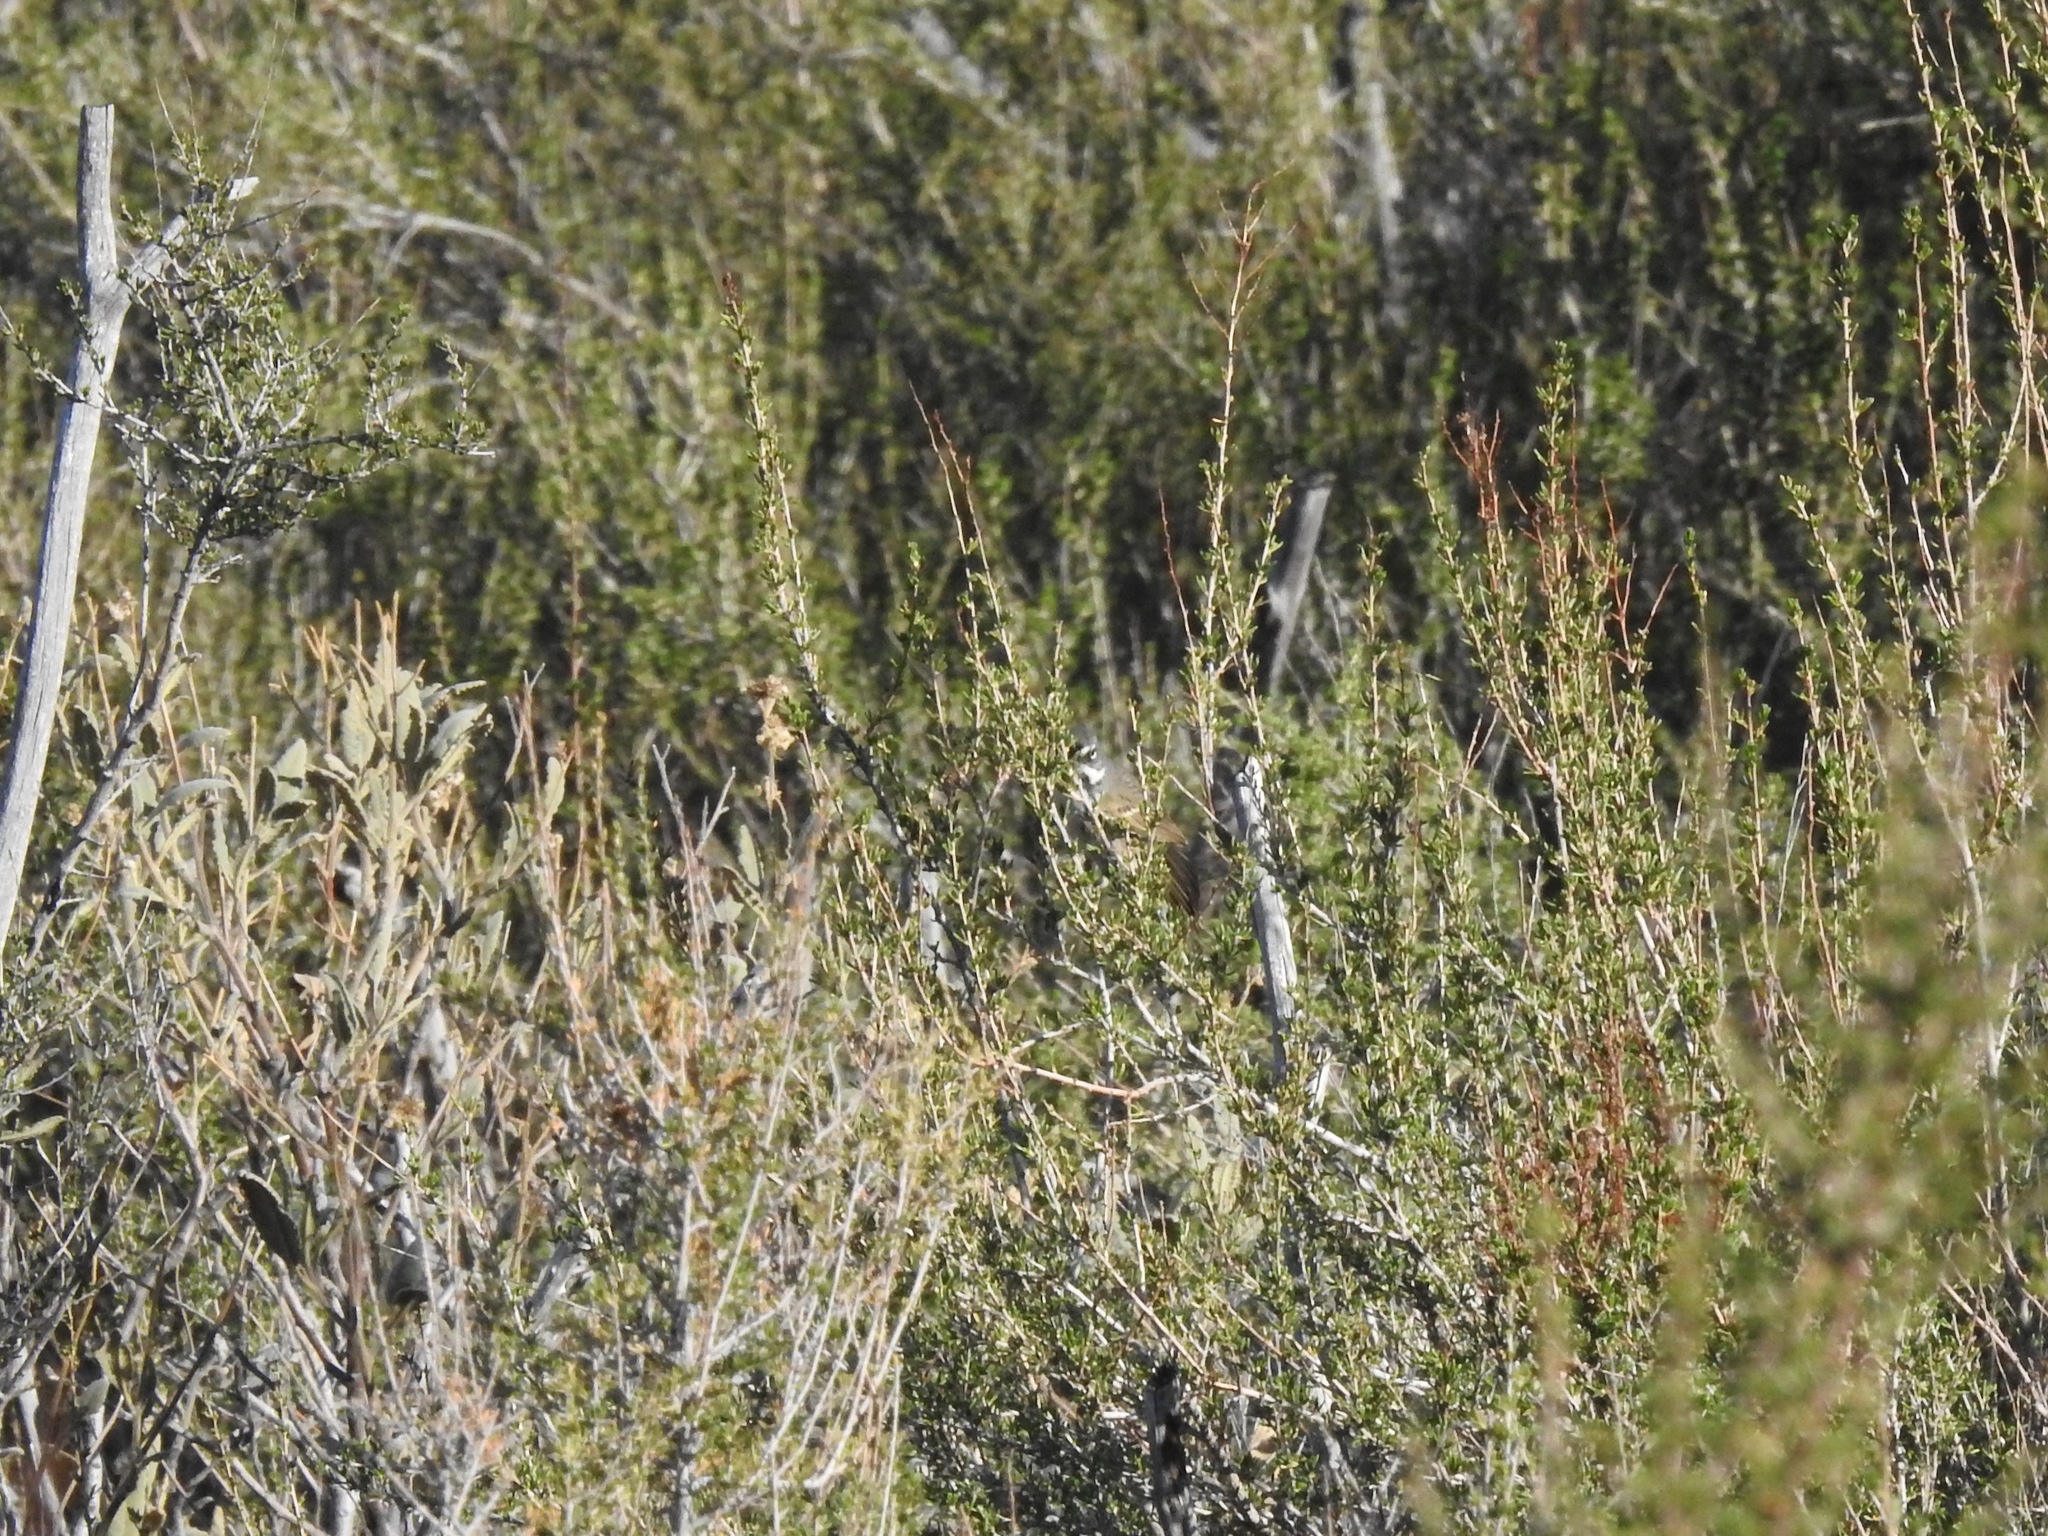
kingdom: Animalia
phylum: Chordata
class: Aves
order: Passeriformes
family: Passerellidae
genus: Artemisiospiza
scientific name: Artemisiospiza belli
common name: Bell's sparrow
